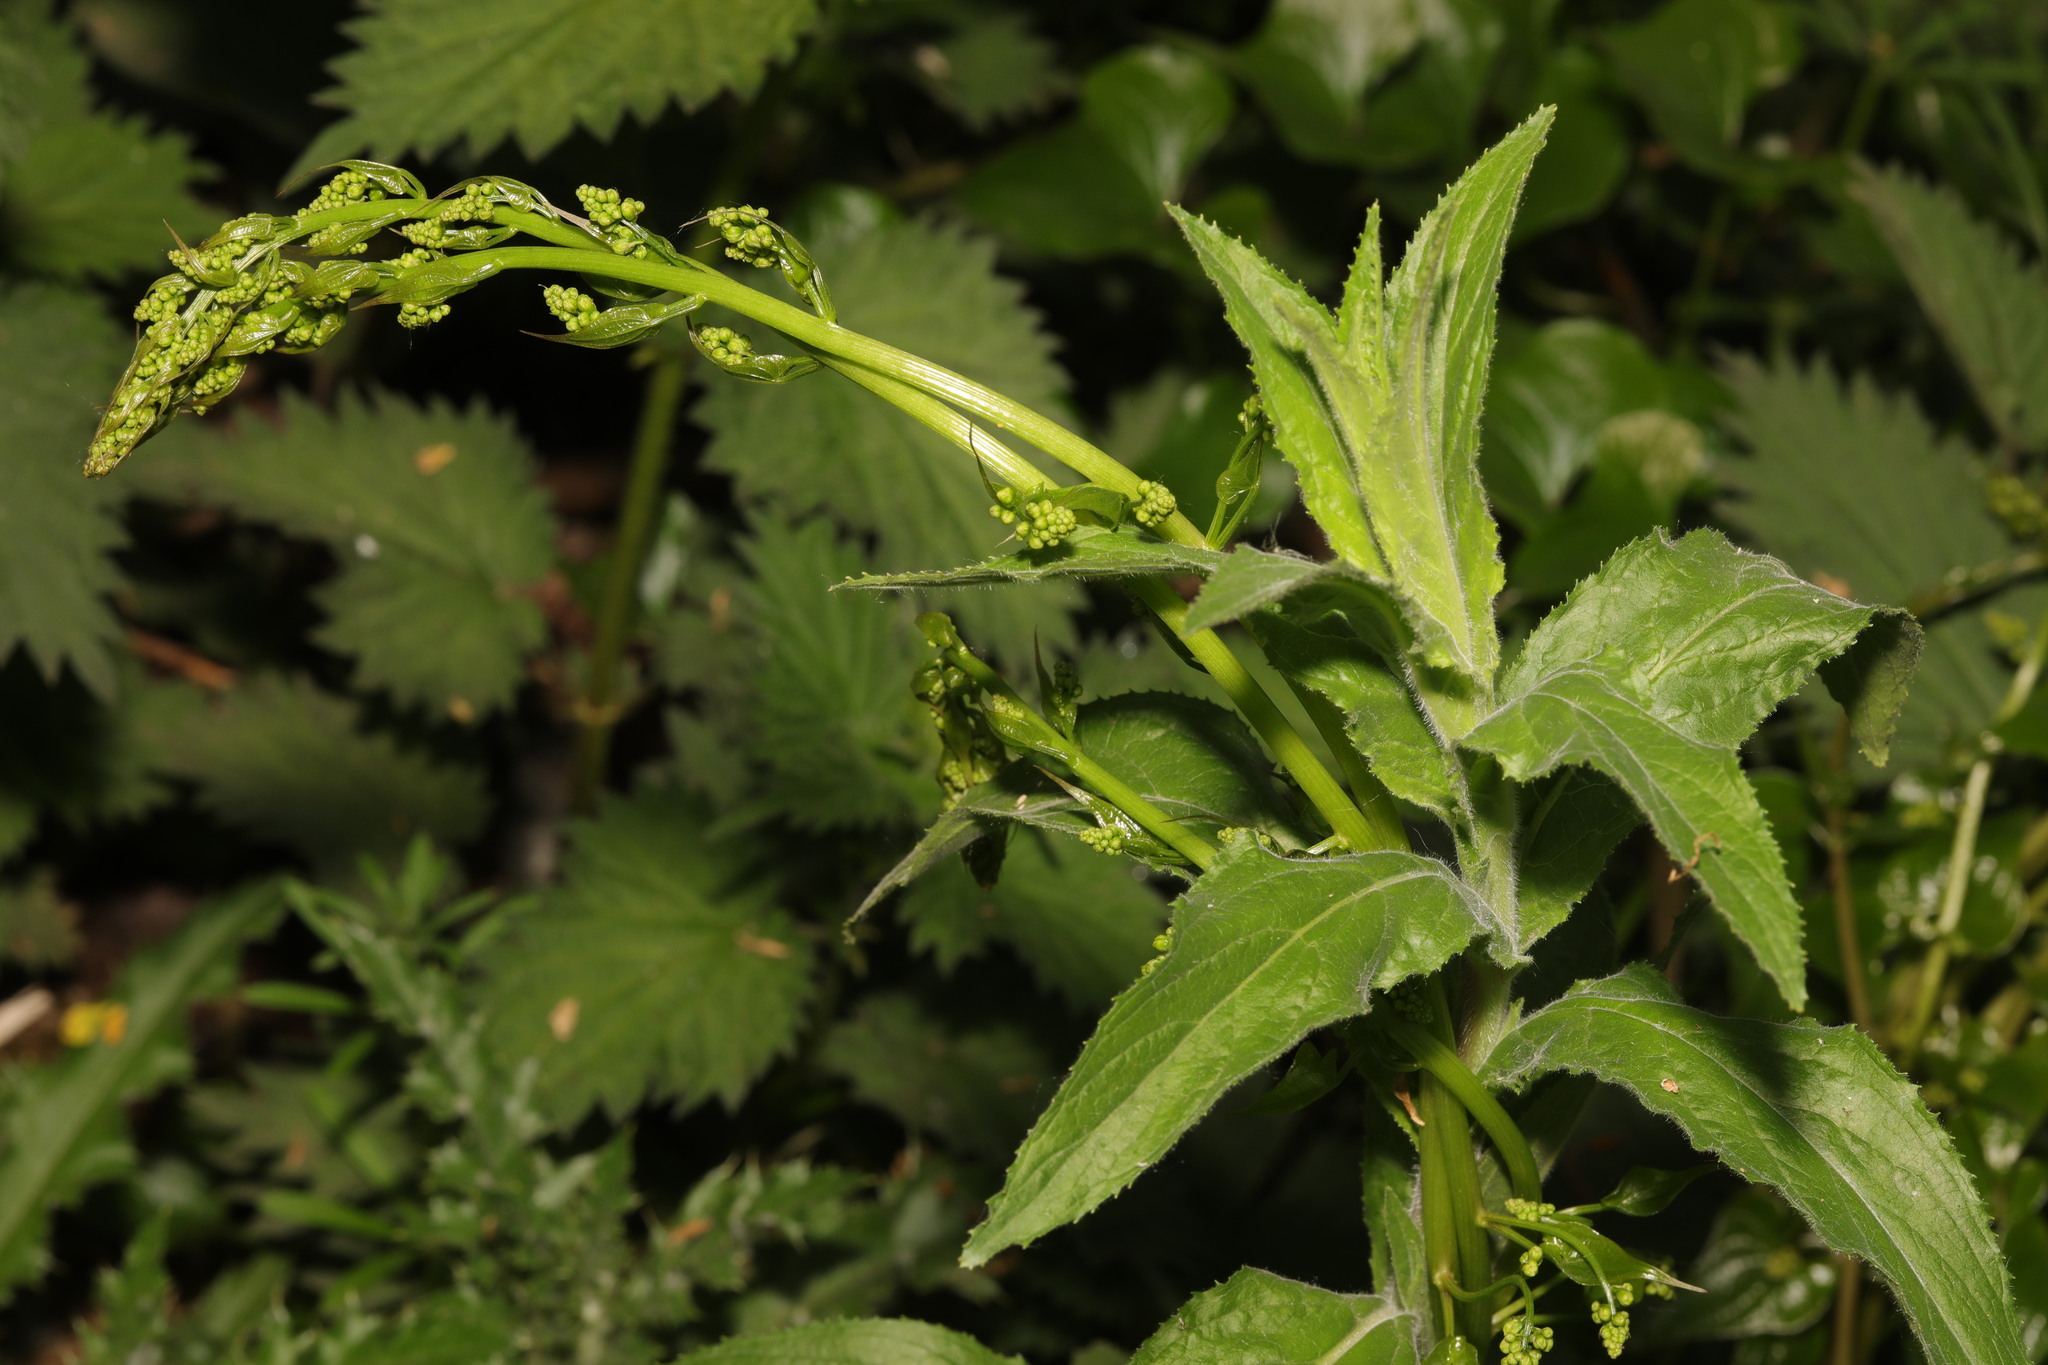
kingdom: Plantae
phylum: Tracheophyta
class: Liliopsida
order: Dioscoreales
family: Dioscoreaceae
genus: Dioscorea
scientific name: Dioscorea communis
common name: Black-bindweed
